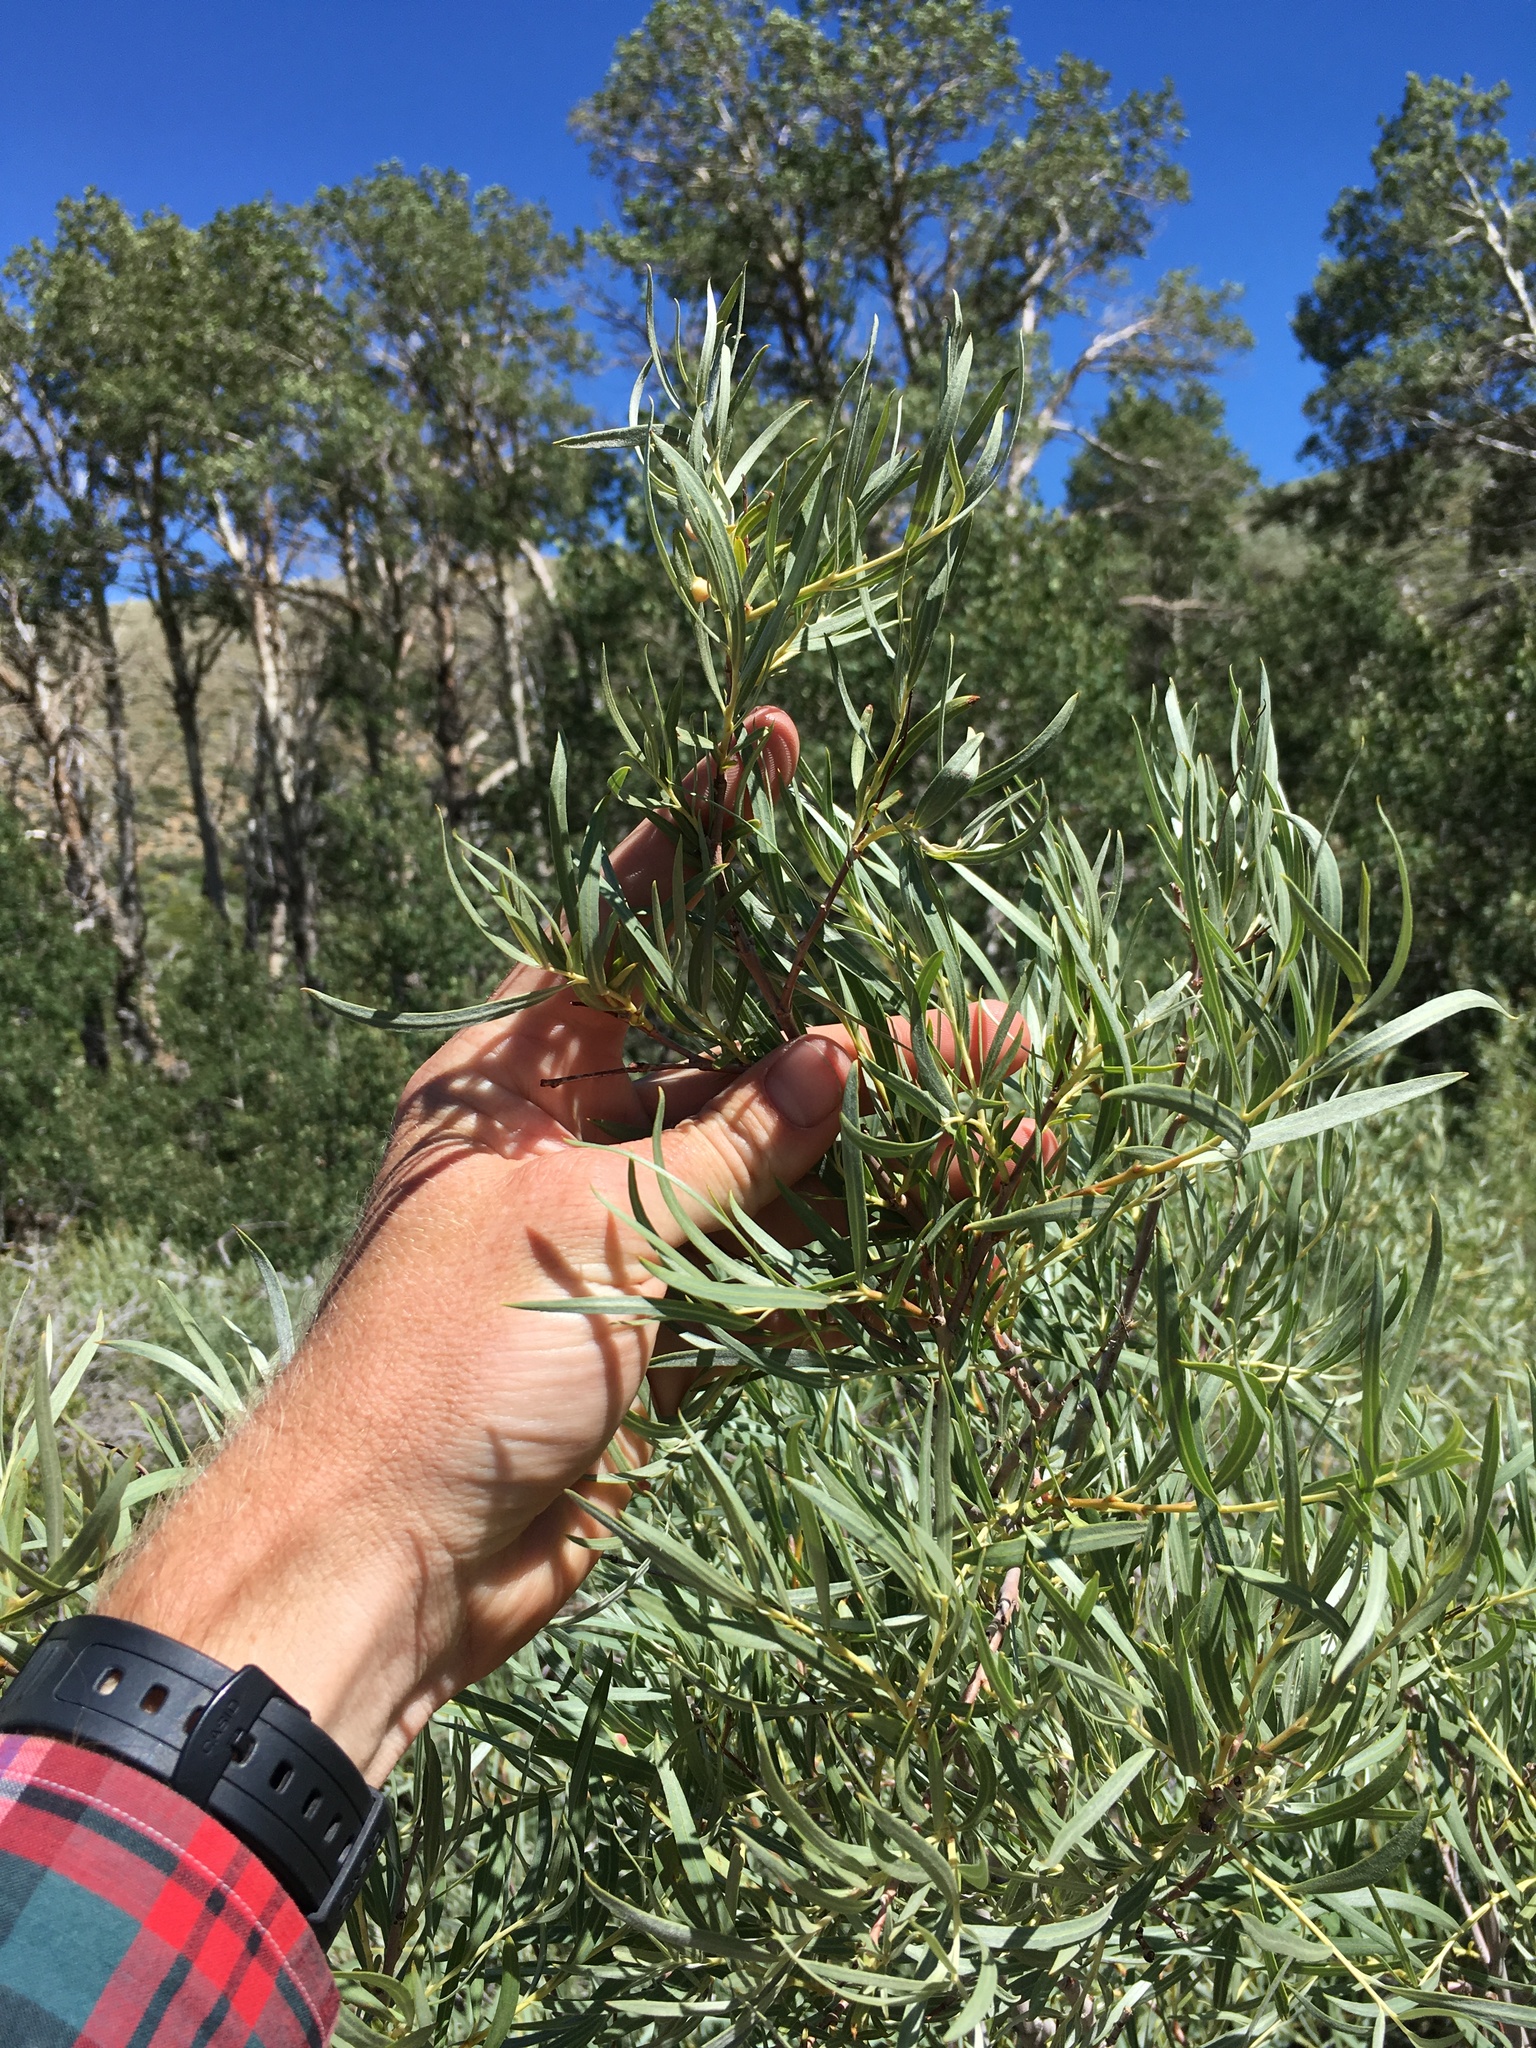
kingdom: Plantae
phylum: Tracheophyta
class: Magnoliopsida
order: Malpighiales
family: Salicaceae
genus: Salix
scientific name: Salix exigua
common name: Coyote willow
